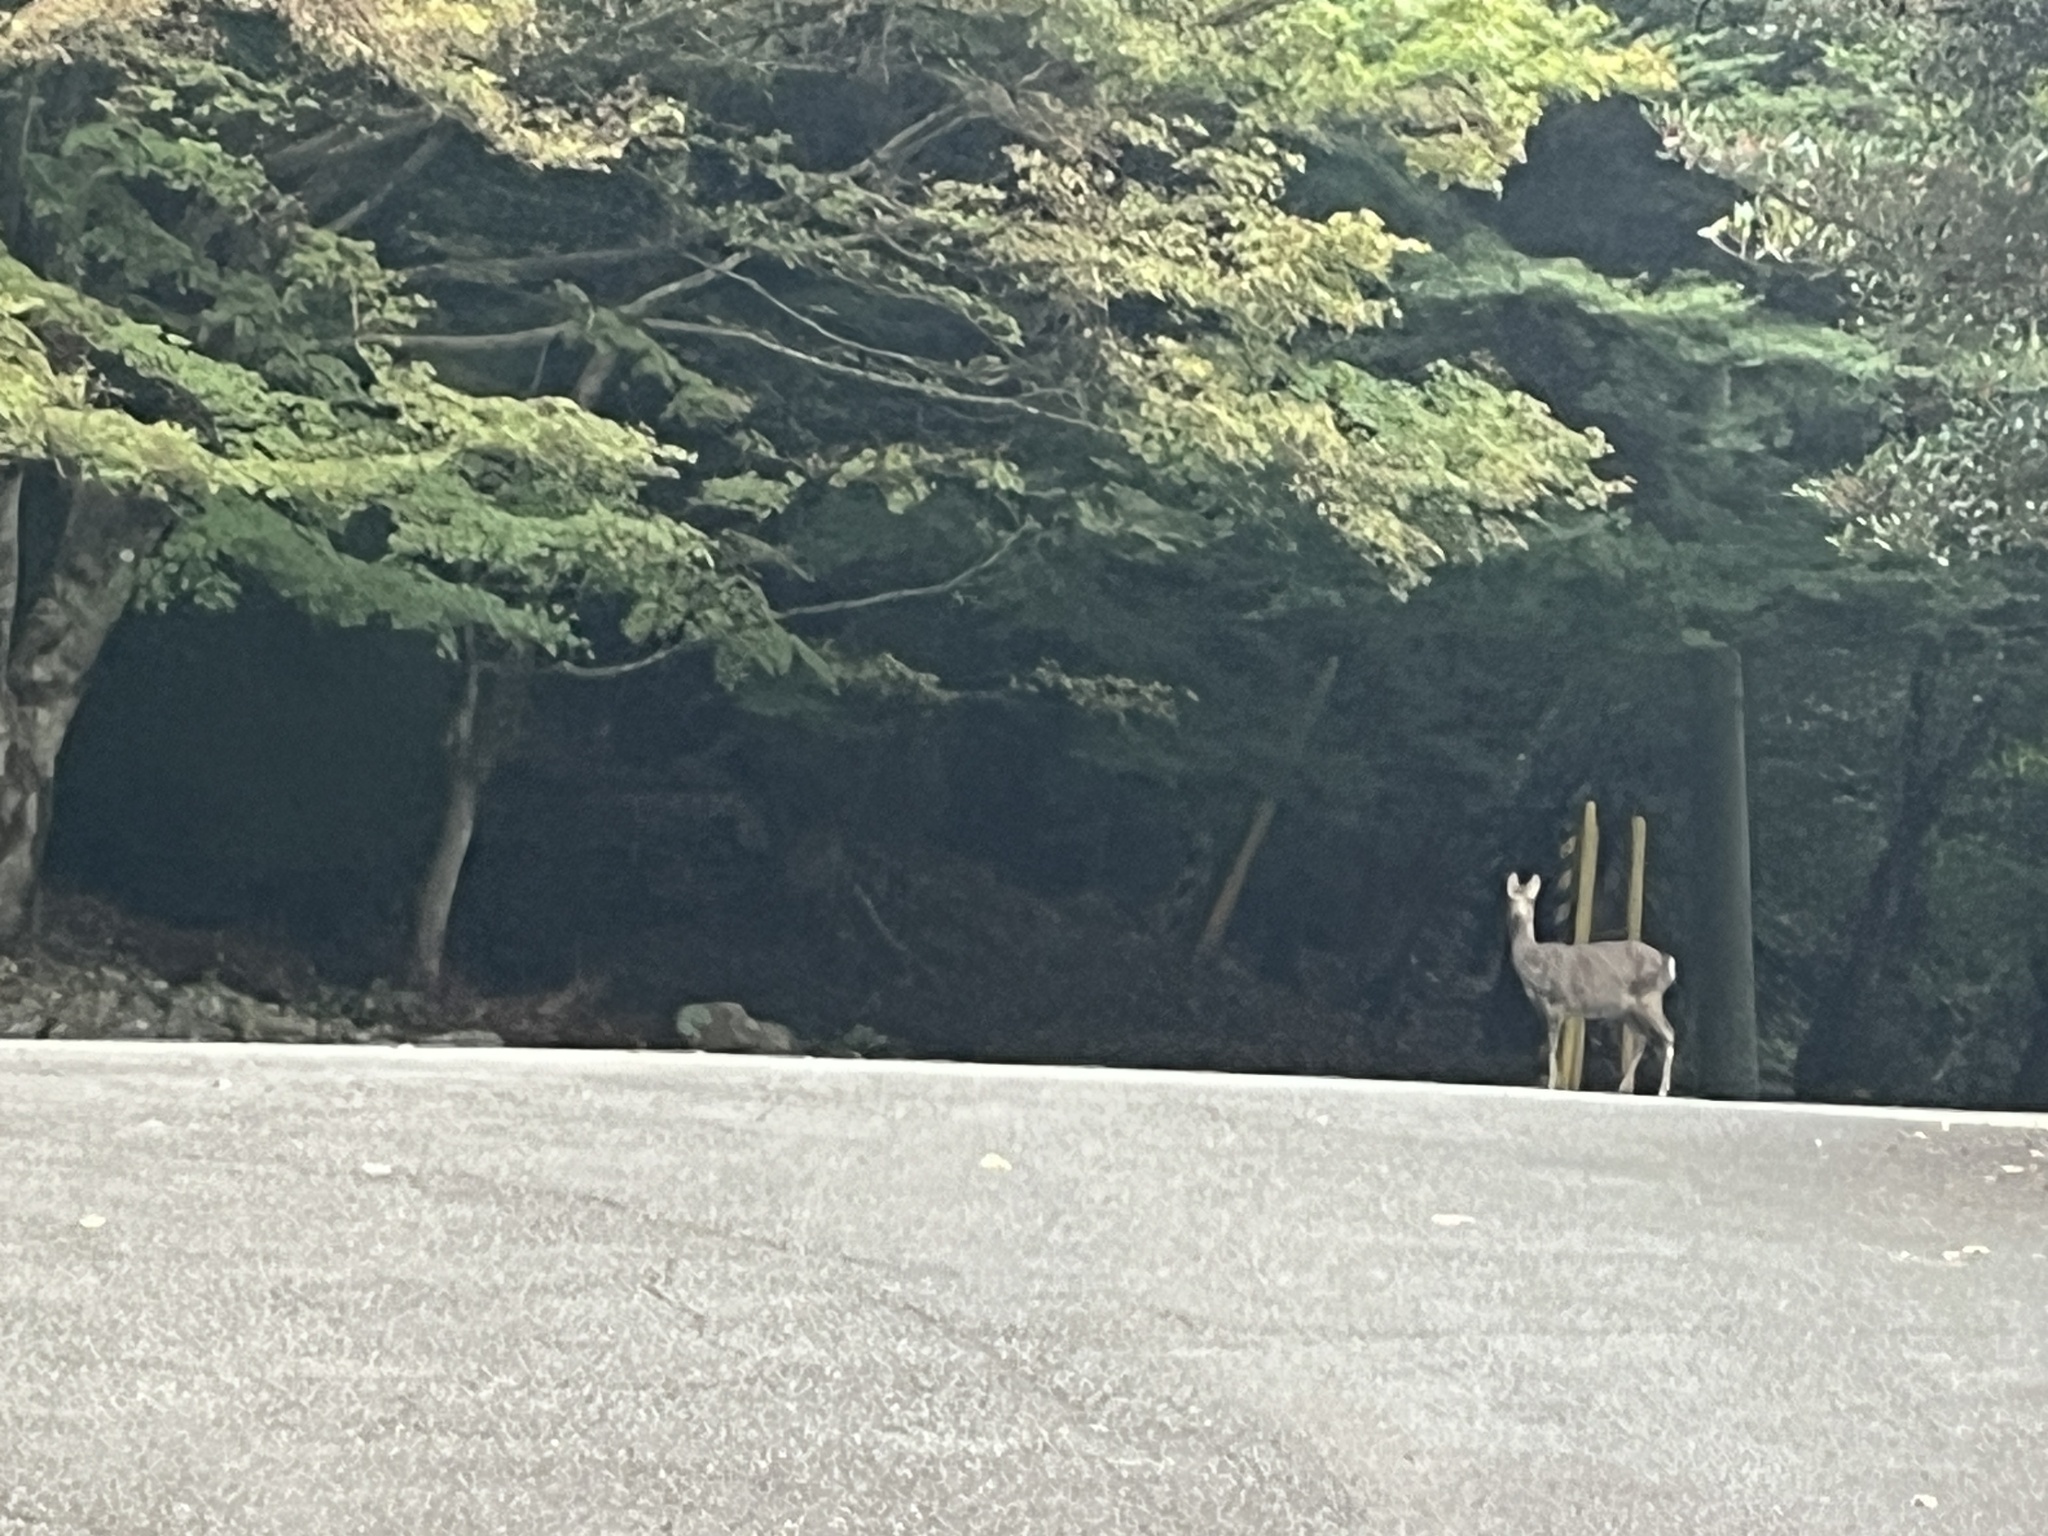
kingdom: Animalia
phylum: Chordata
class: Mammalia
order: Artiodactyla
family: Cervidae
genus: Cervus
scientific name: Cervus nippon
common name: Sika deer
